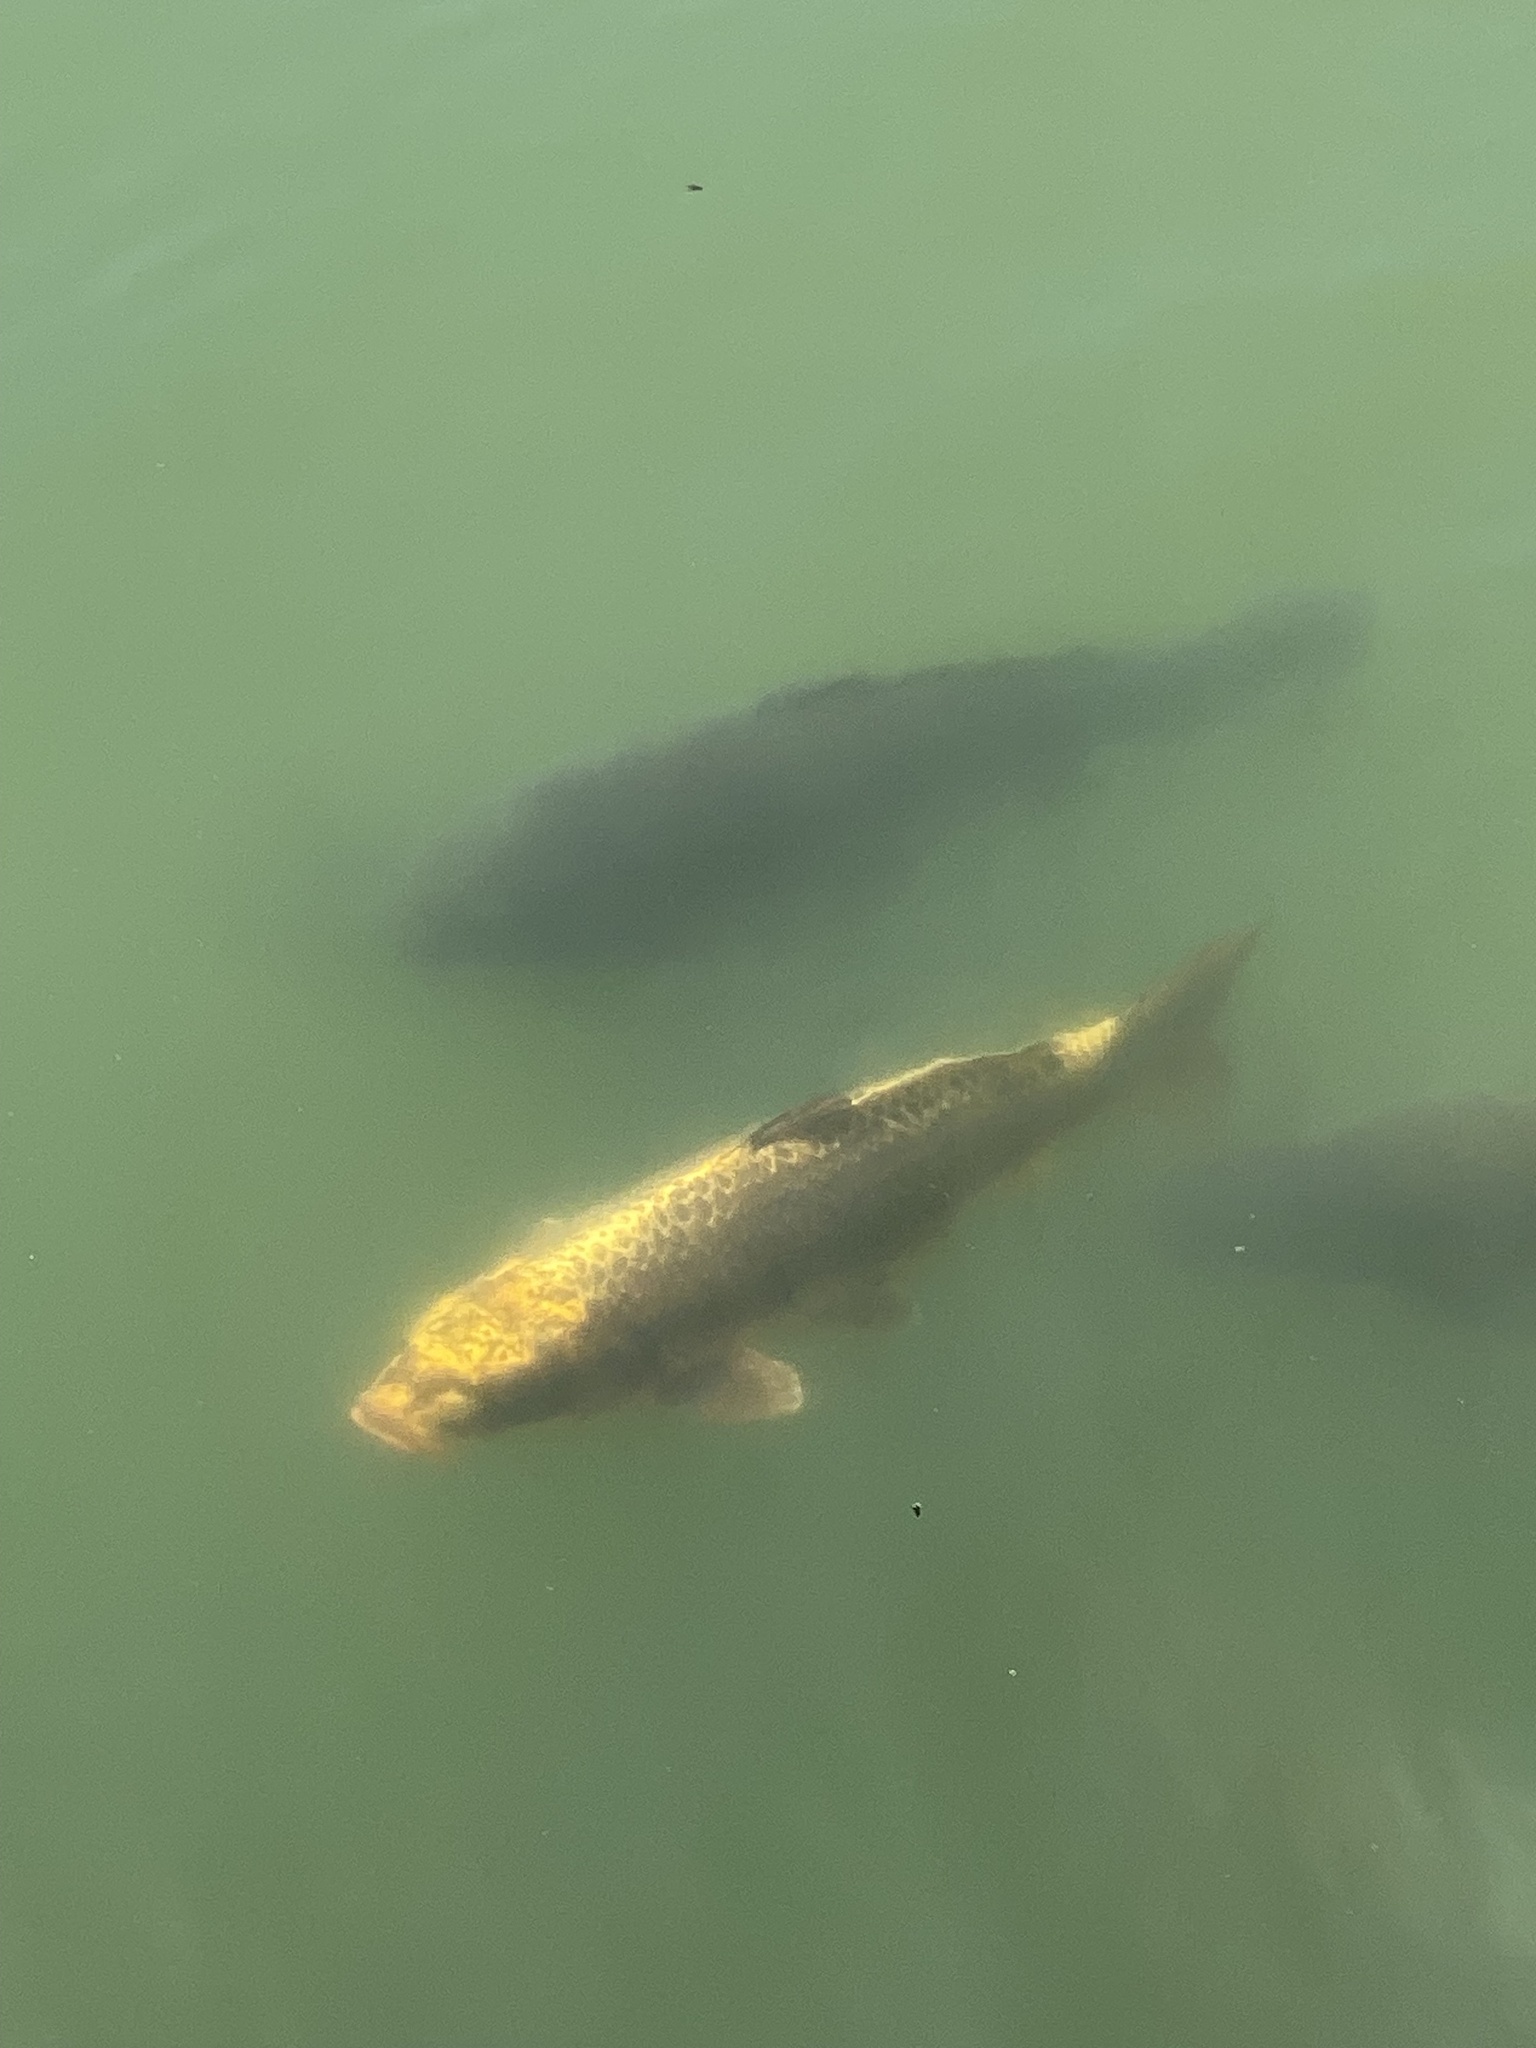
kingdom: Animalia
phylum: Chordata
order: Cypriniformes
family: Cyprinidae
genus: Cyprinus
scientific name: Cyprinus rubrofuscus
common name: Koi
